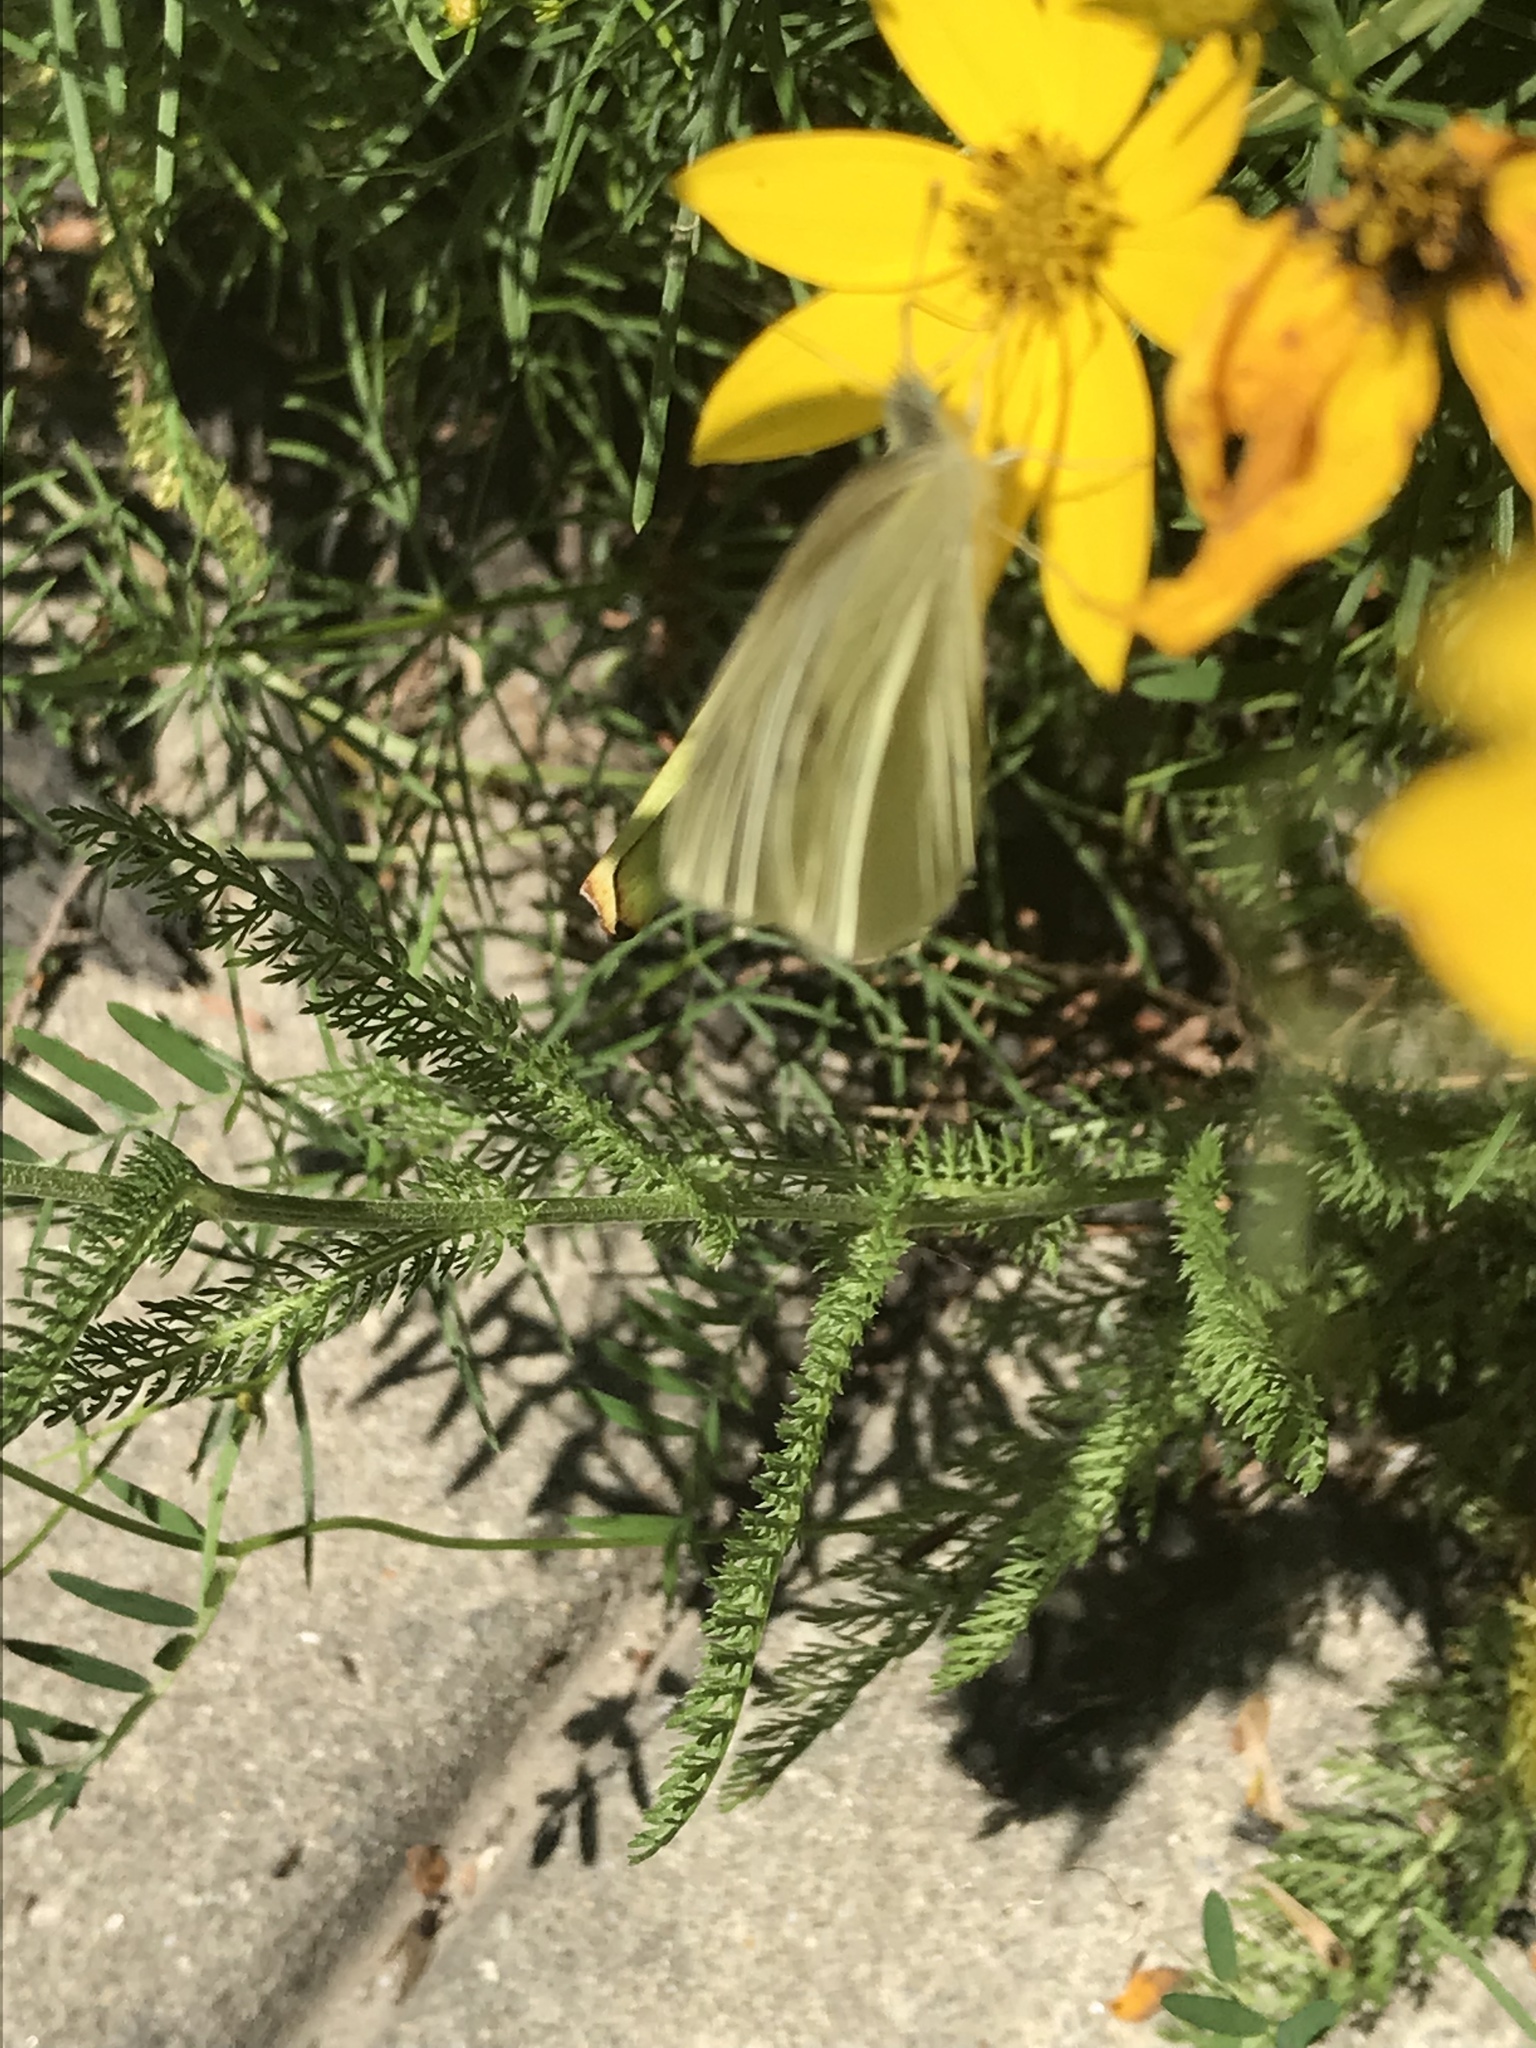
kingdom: Animalia
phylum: Arthropoda
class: Insecta
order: Lepidoptera
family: Pieridae
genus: Pieris
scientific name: Pieris rapae
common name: Small white
